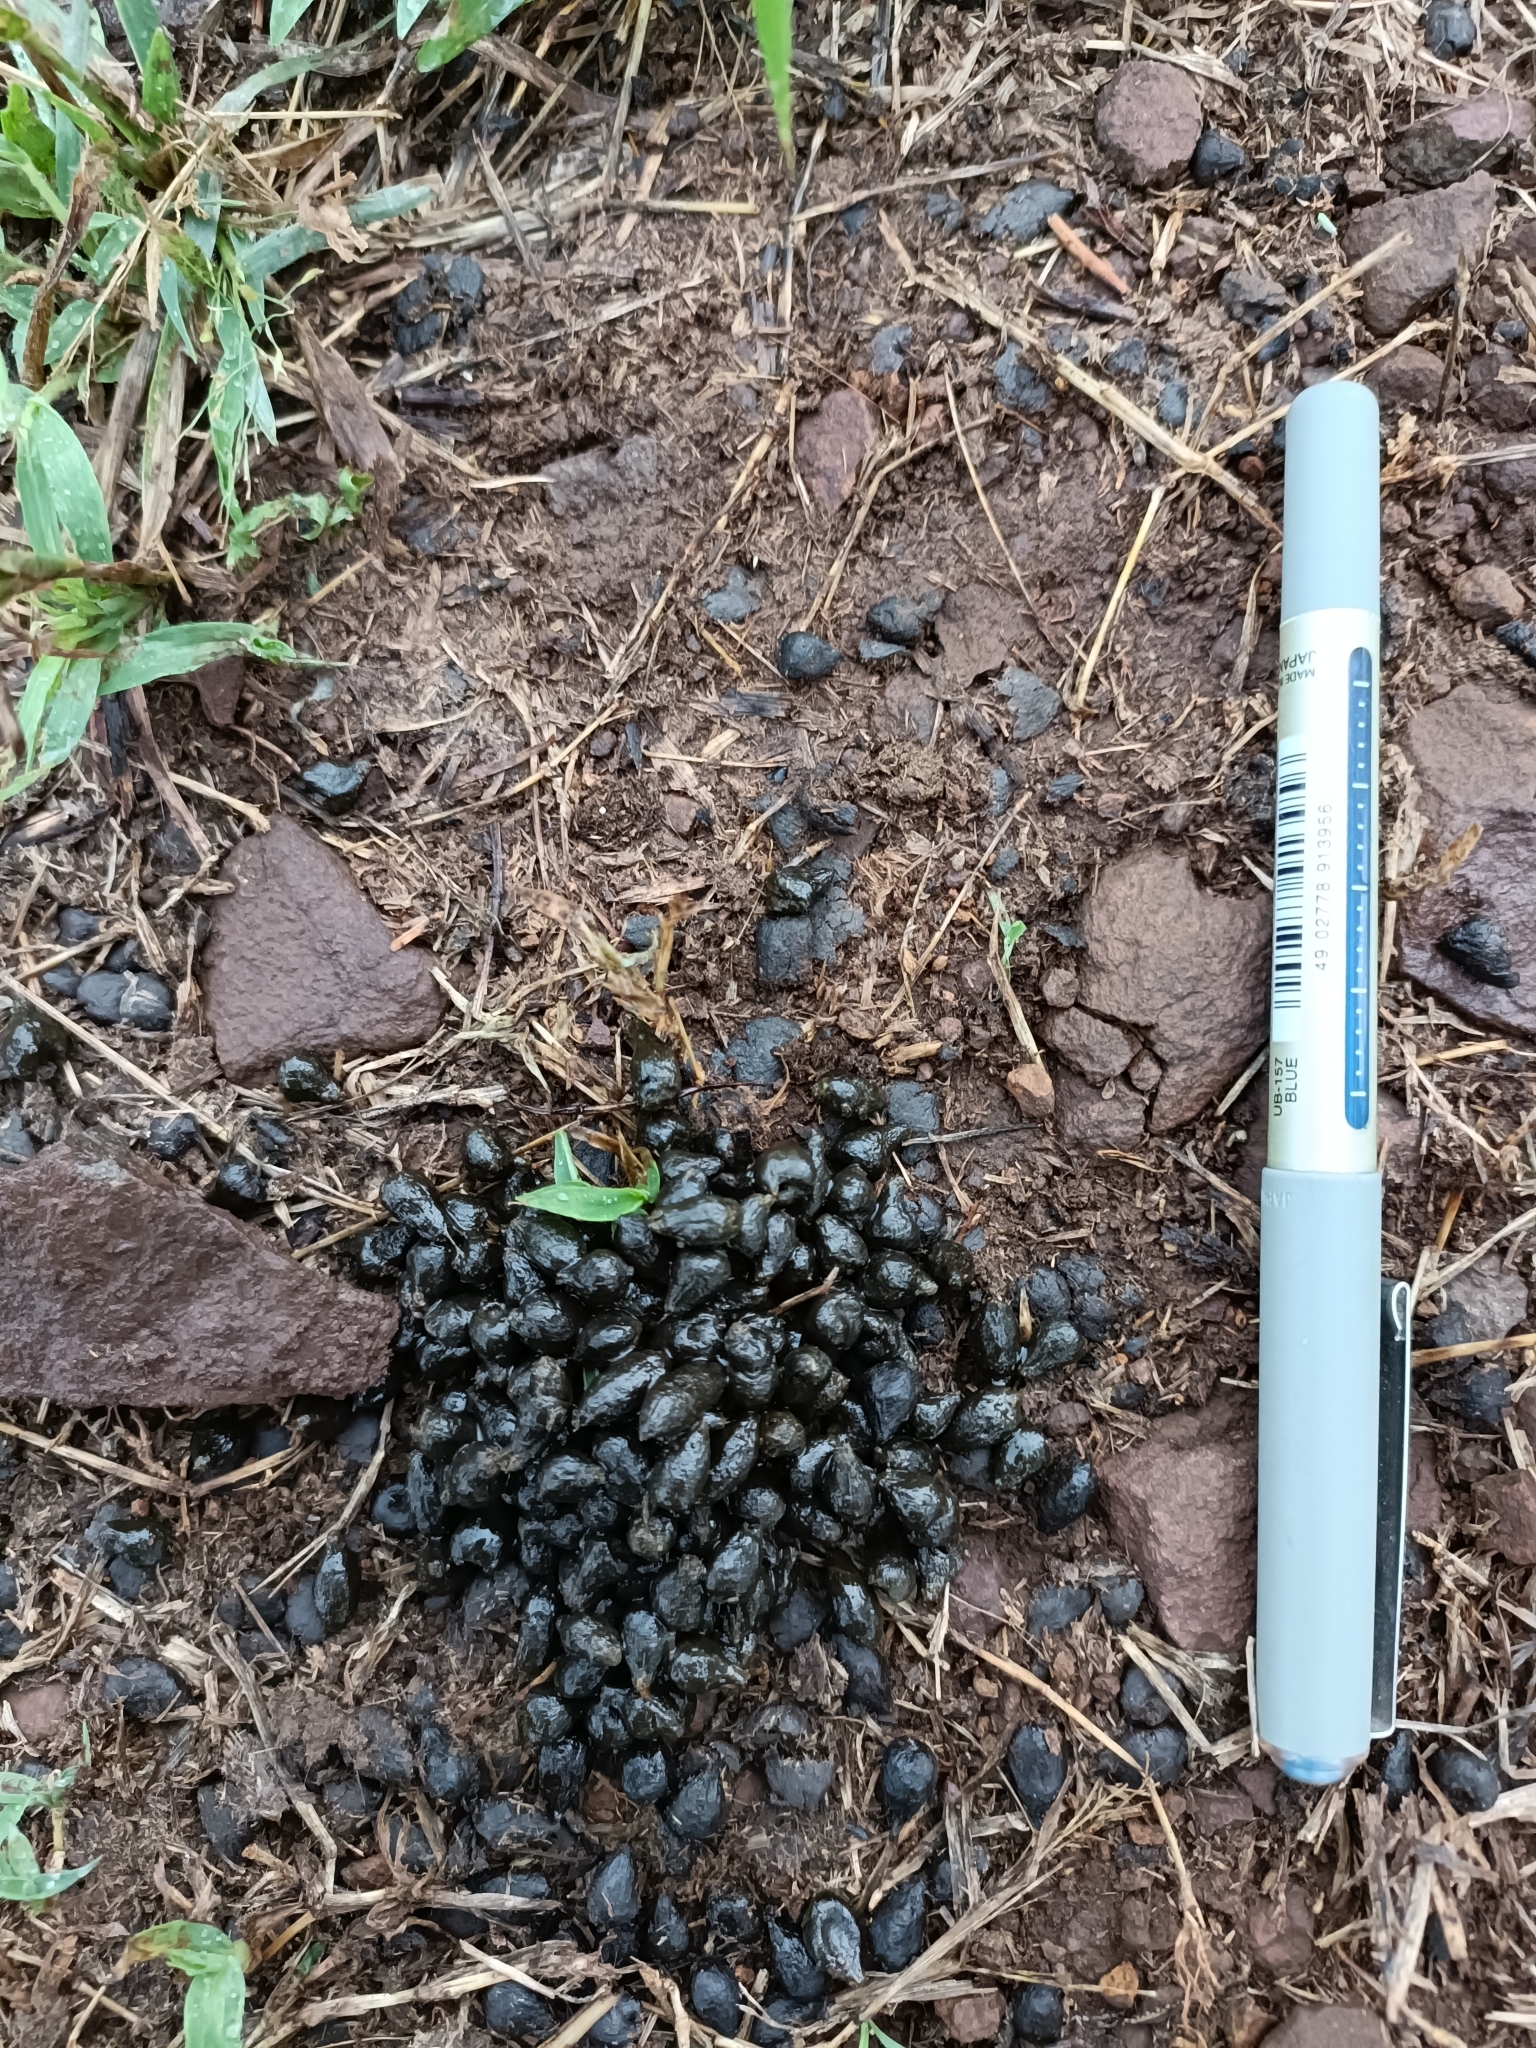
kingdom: Animalia
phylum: Chordata
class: Mammalia
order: Artiodactyla
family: Bovidae
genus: Gazella
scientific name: Gazella bennettii
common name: Indian gazelle
